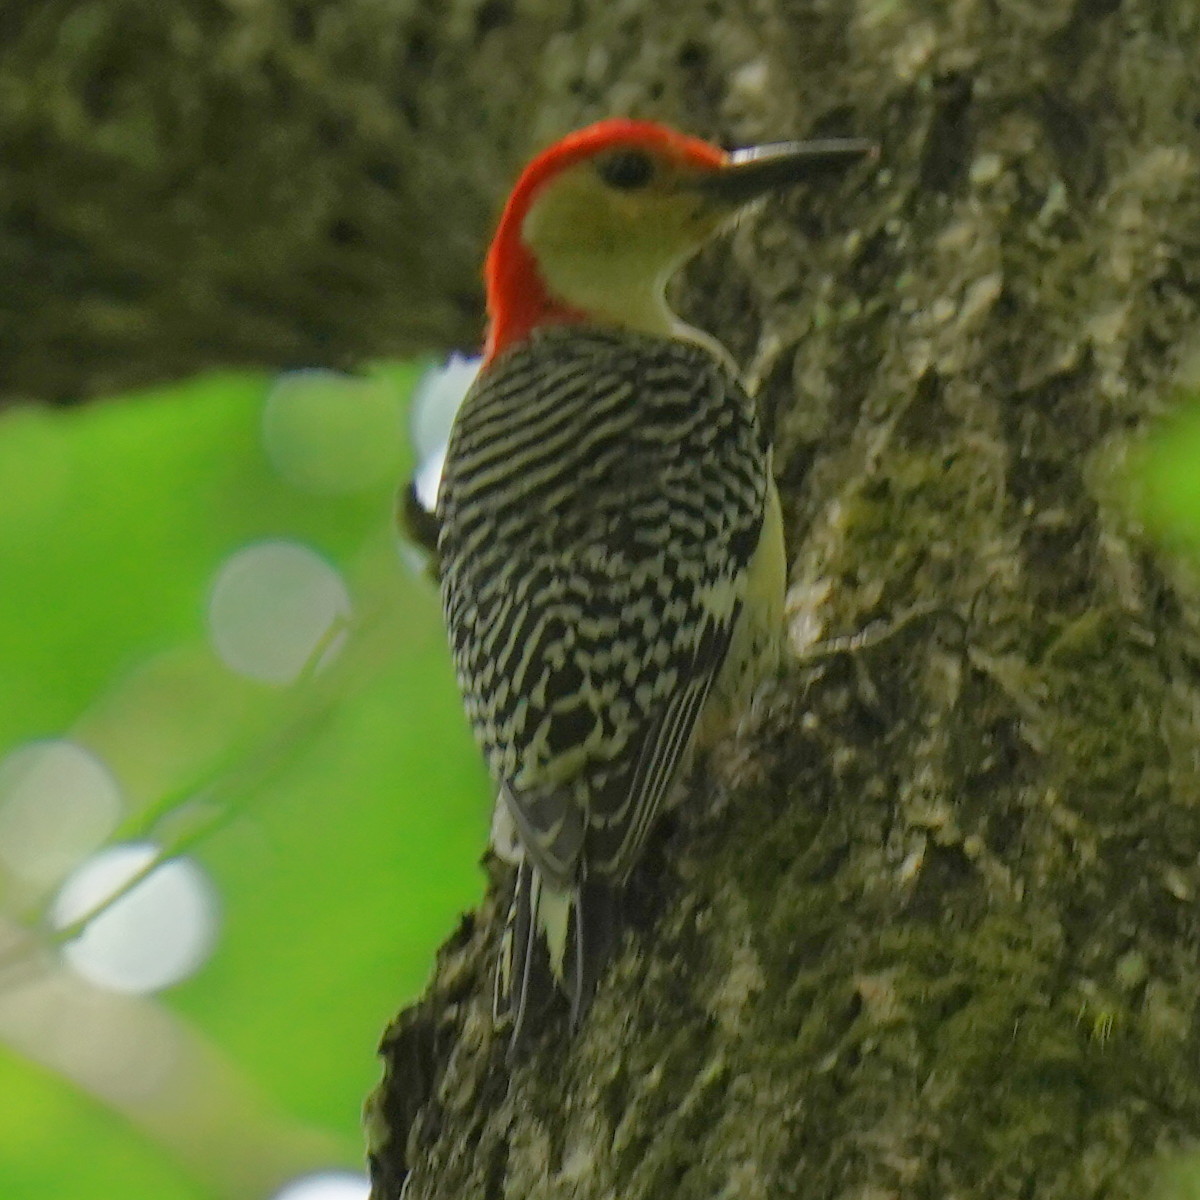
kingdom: Animalia
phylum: Chordata
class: Aves
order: Piciformes
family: Picidae
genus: Melanerpes
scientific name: Melanerpes carolinus
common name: Red-bellied woodpecker
